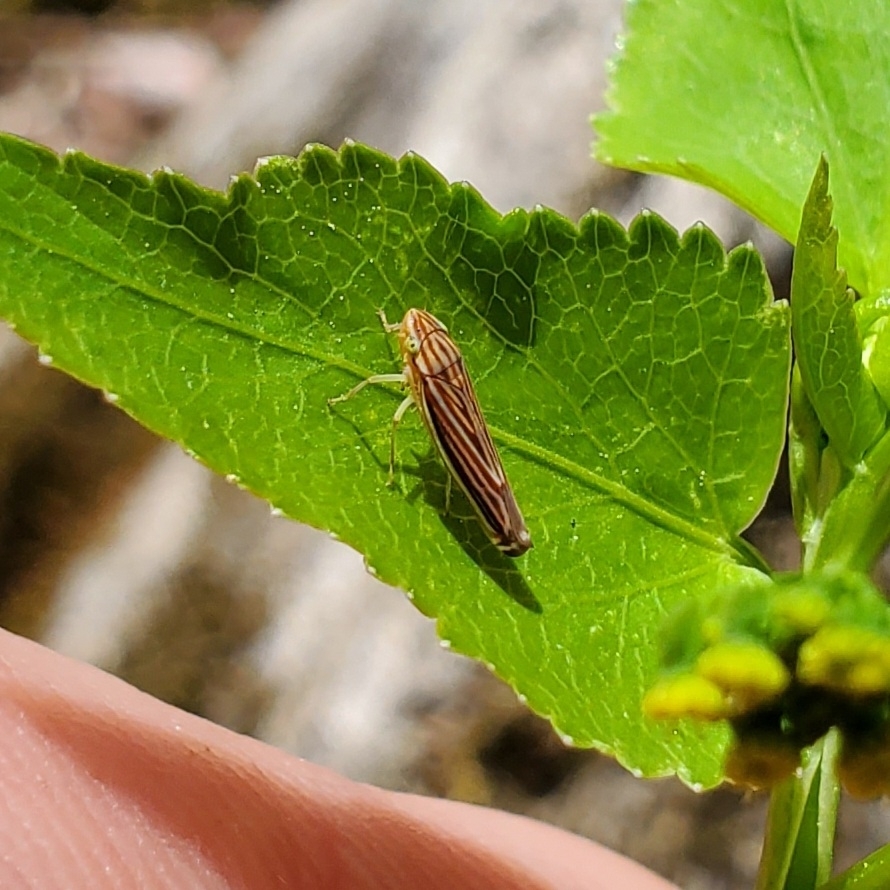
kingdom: Animalia
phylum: Arthropoda
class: Insecta
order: Hemiptera
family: Cicadellidae
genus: Sibovia
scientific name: Sibovia occatoria
